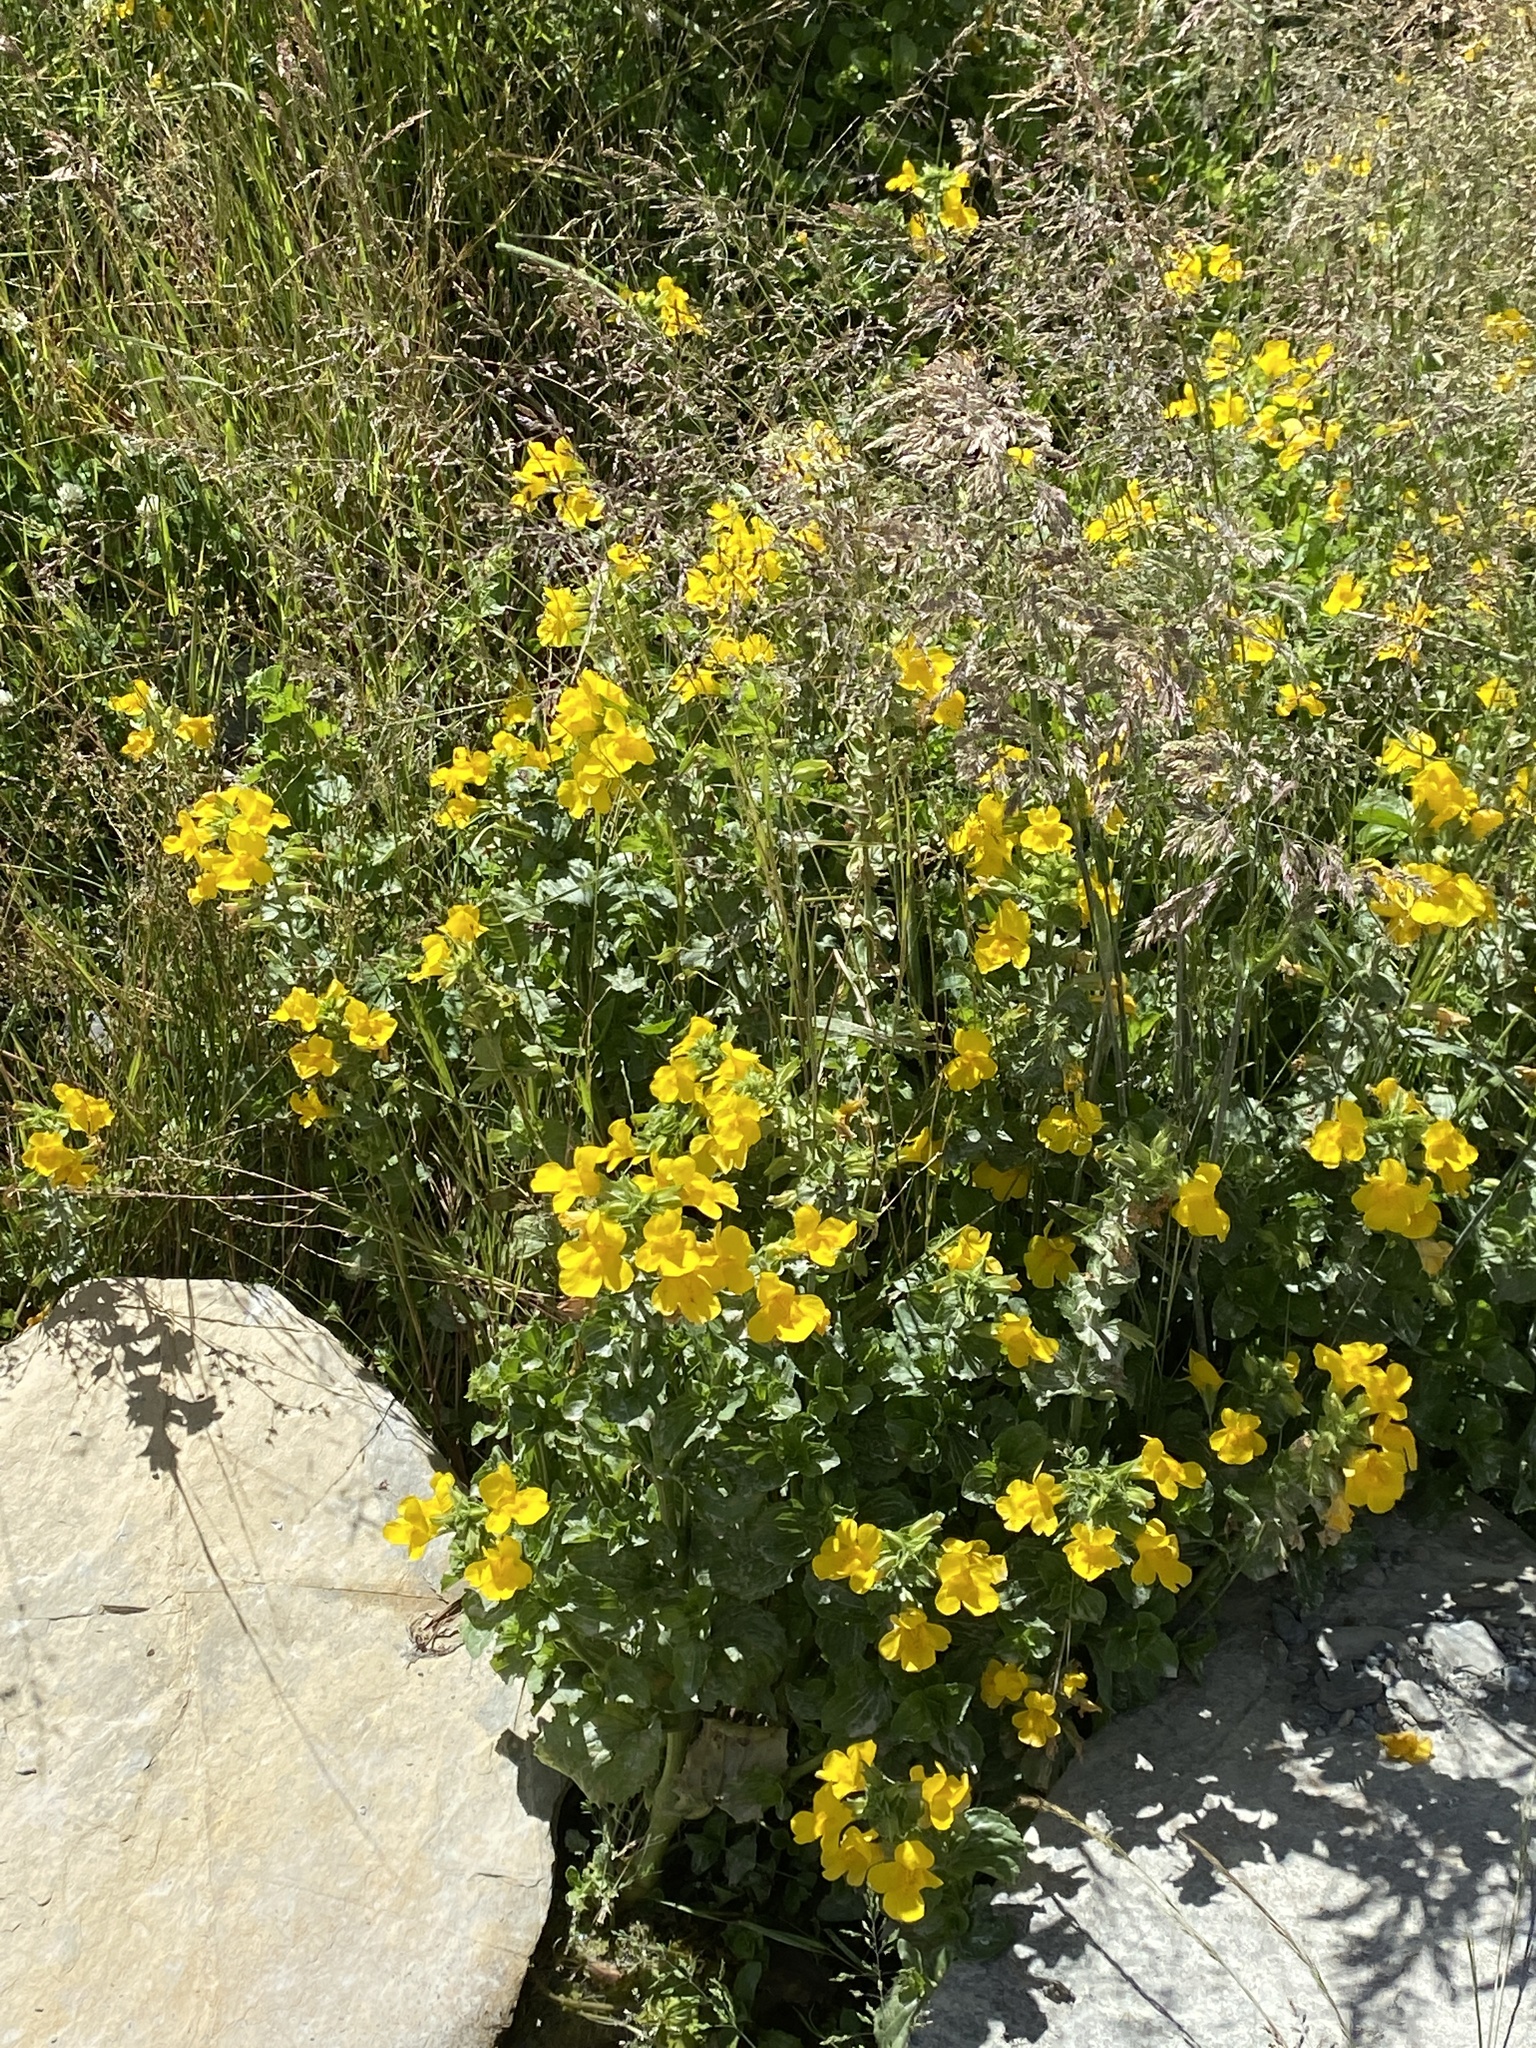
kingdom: Plantae
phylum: Tracheophyta
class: Magnoliopsida
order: Lamiales
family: Phrymaceae
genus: Erythranthe
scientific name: Erythranthe guttata
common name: Monkeyflower
